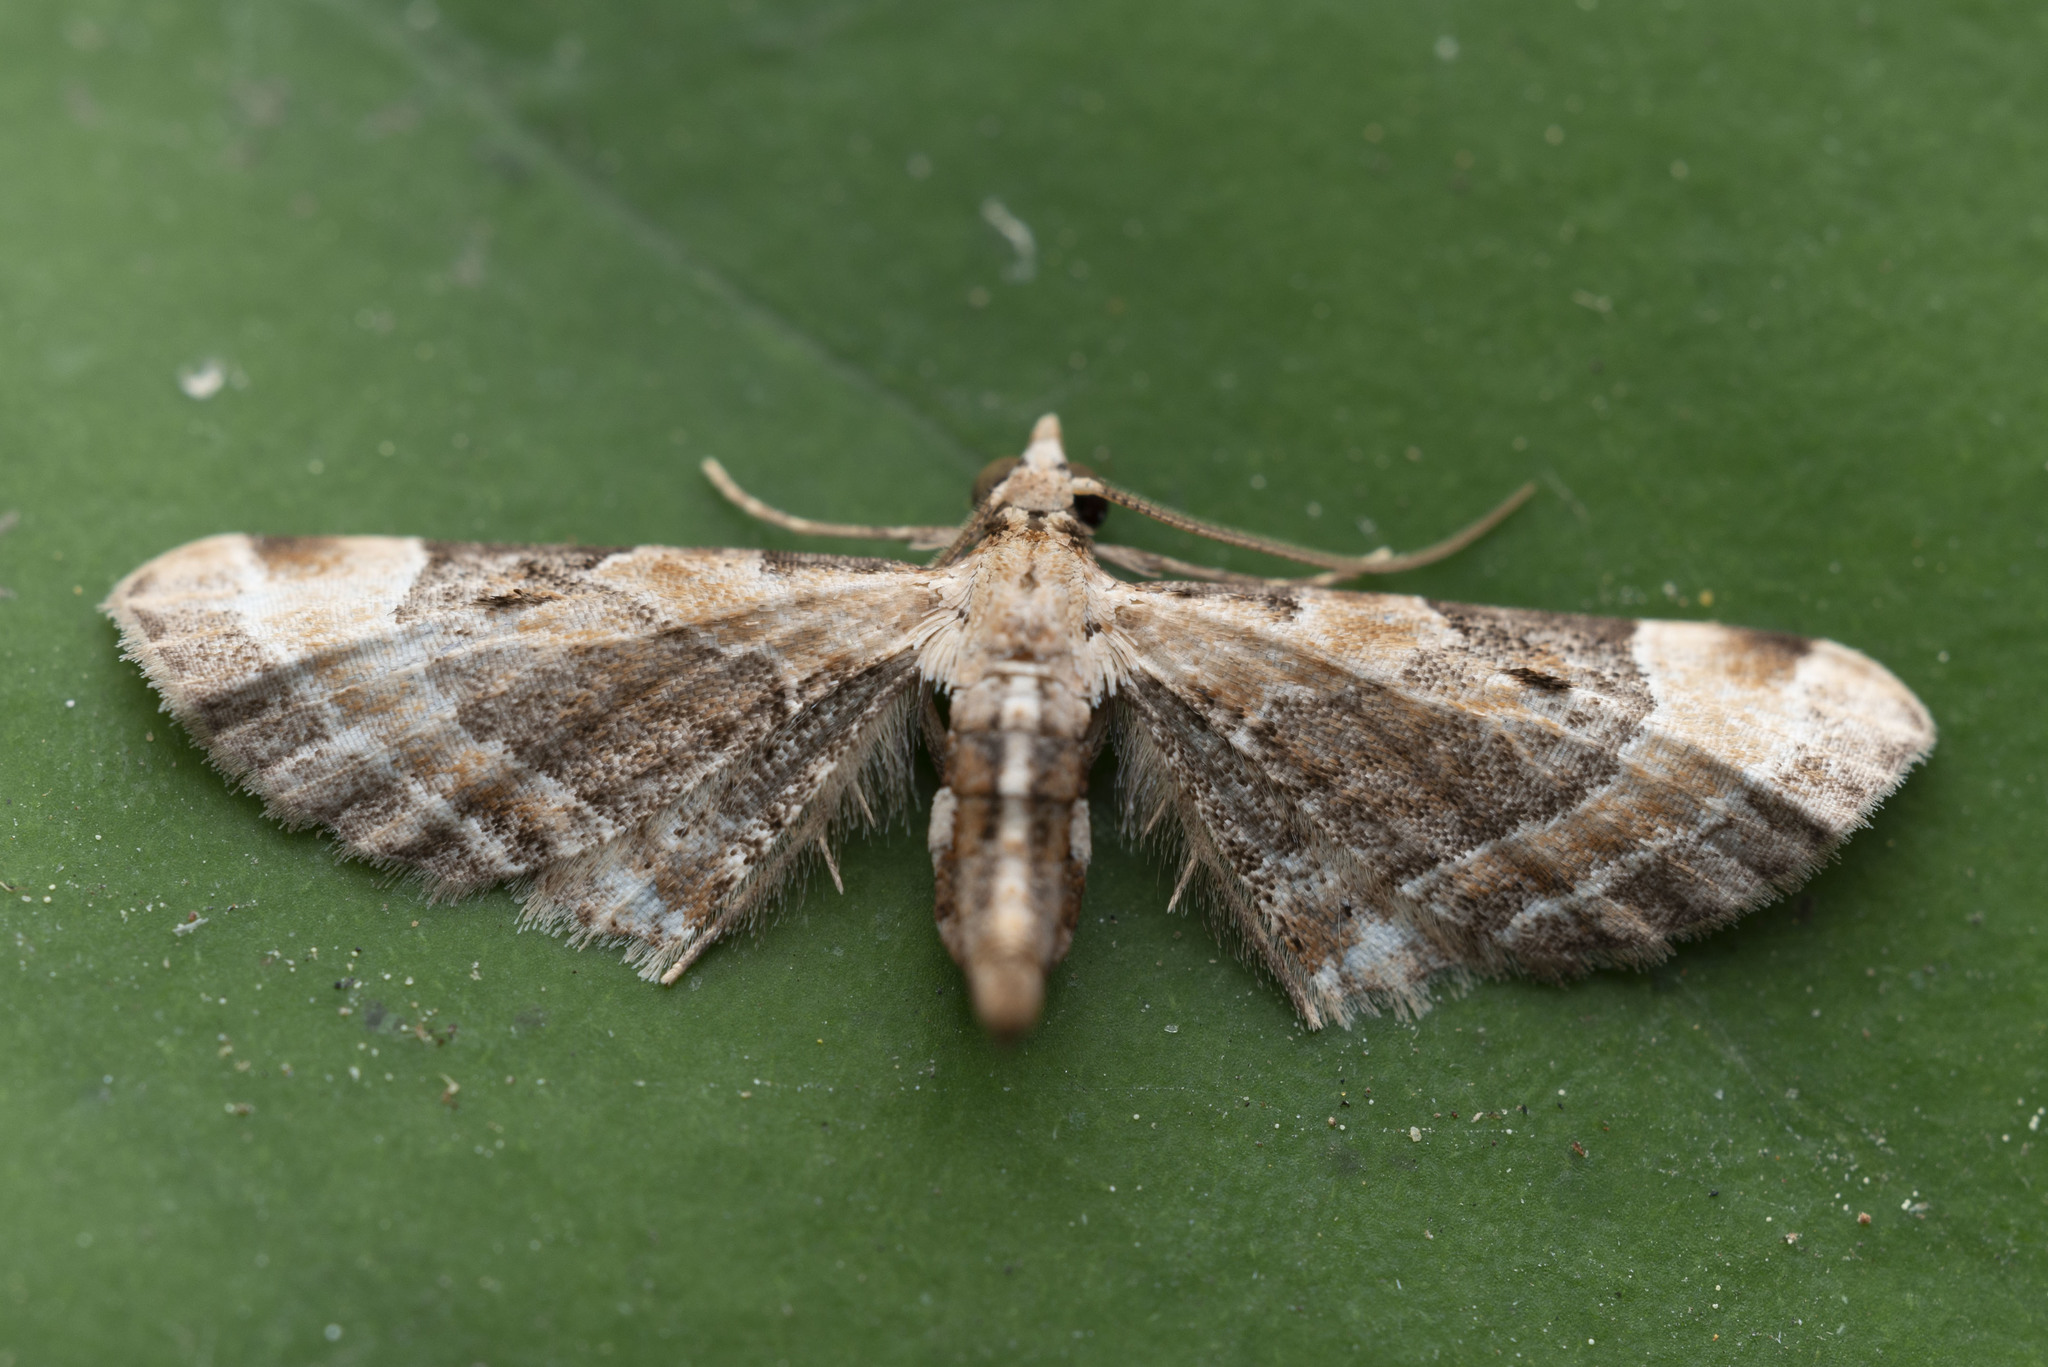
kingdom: Animalia
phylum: Arthropoda
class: Insecta
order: Lepidoptera
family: Geometridae
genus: Eupithecia
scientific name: Eupithecia rigida
